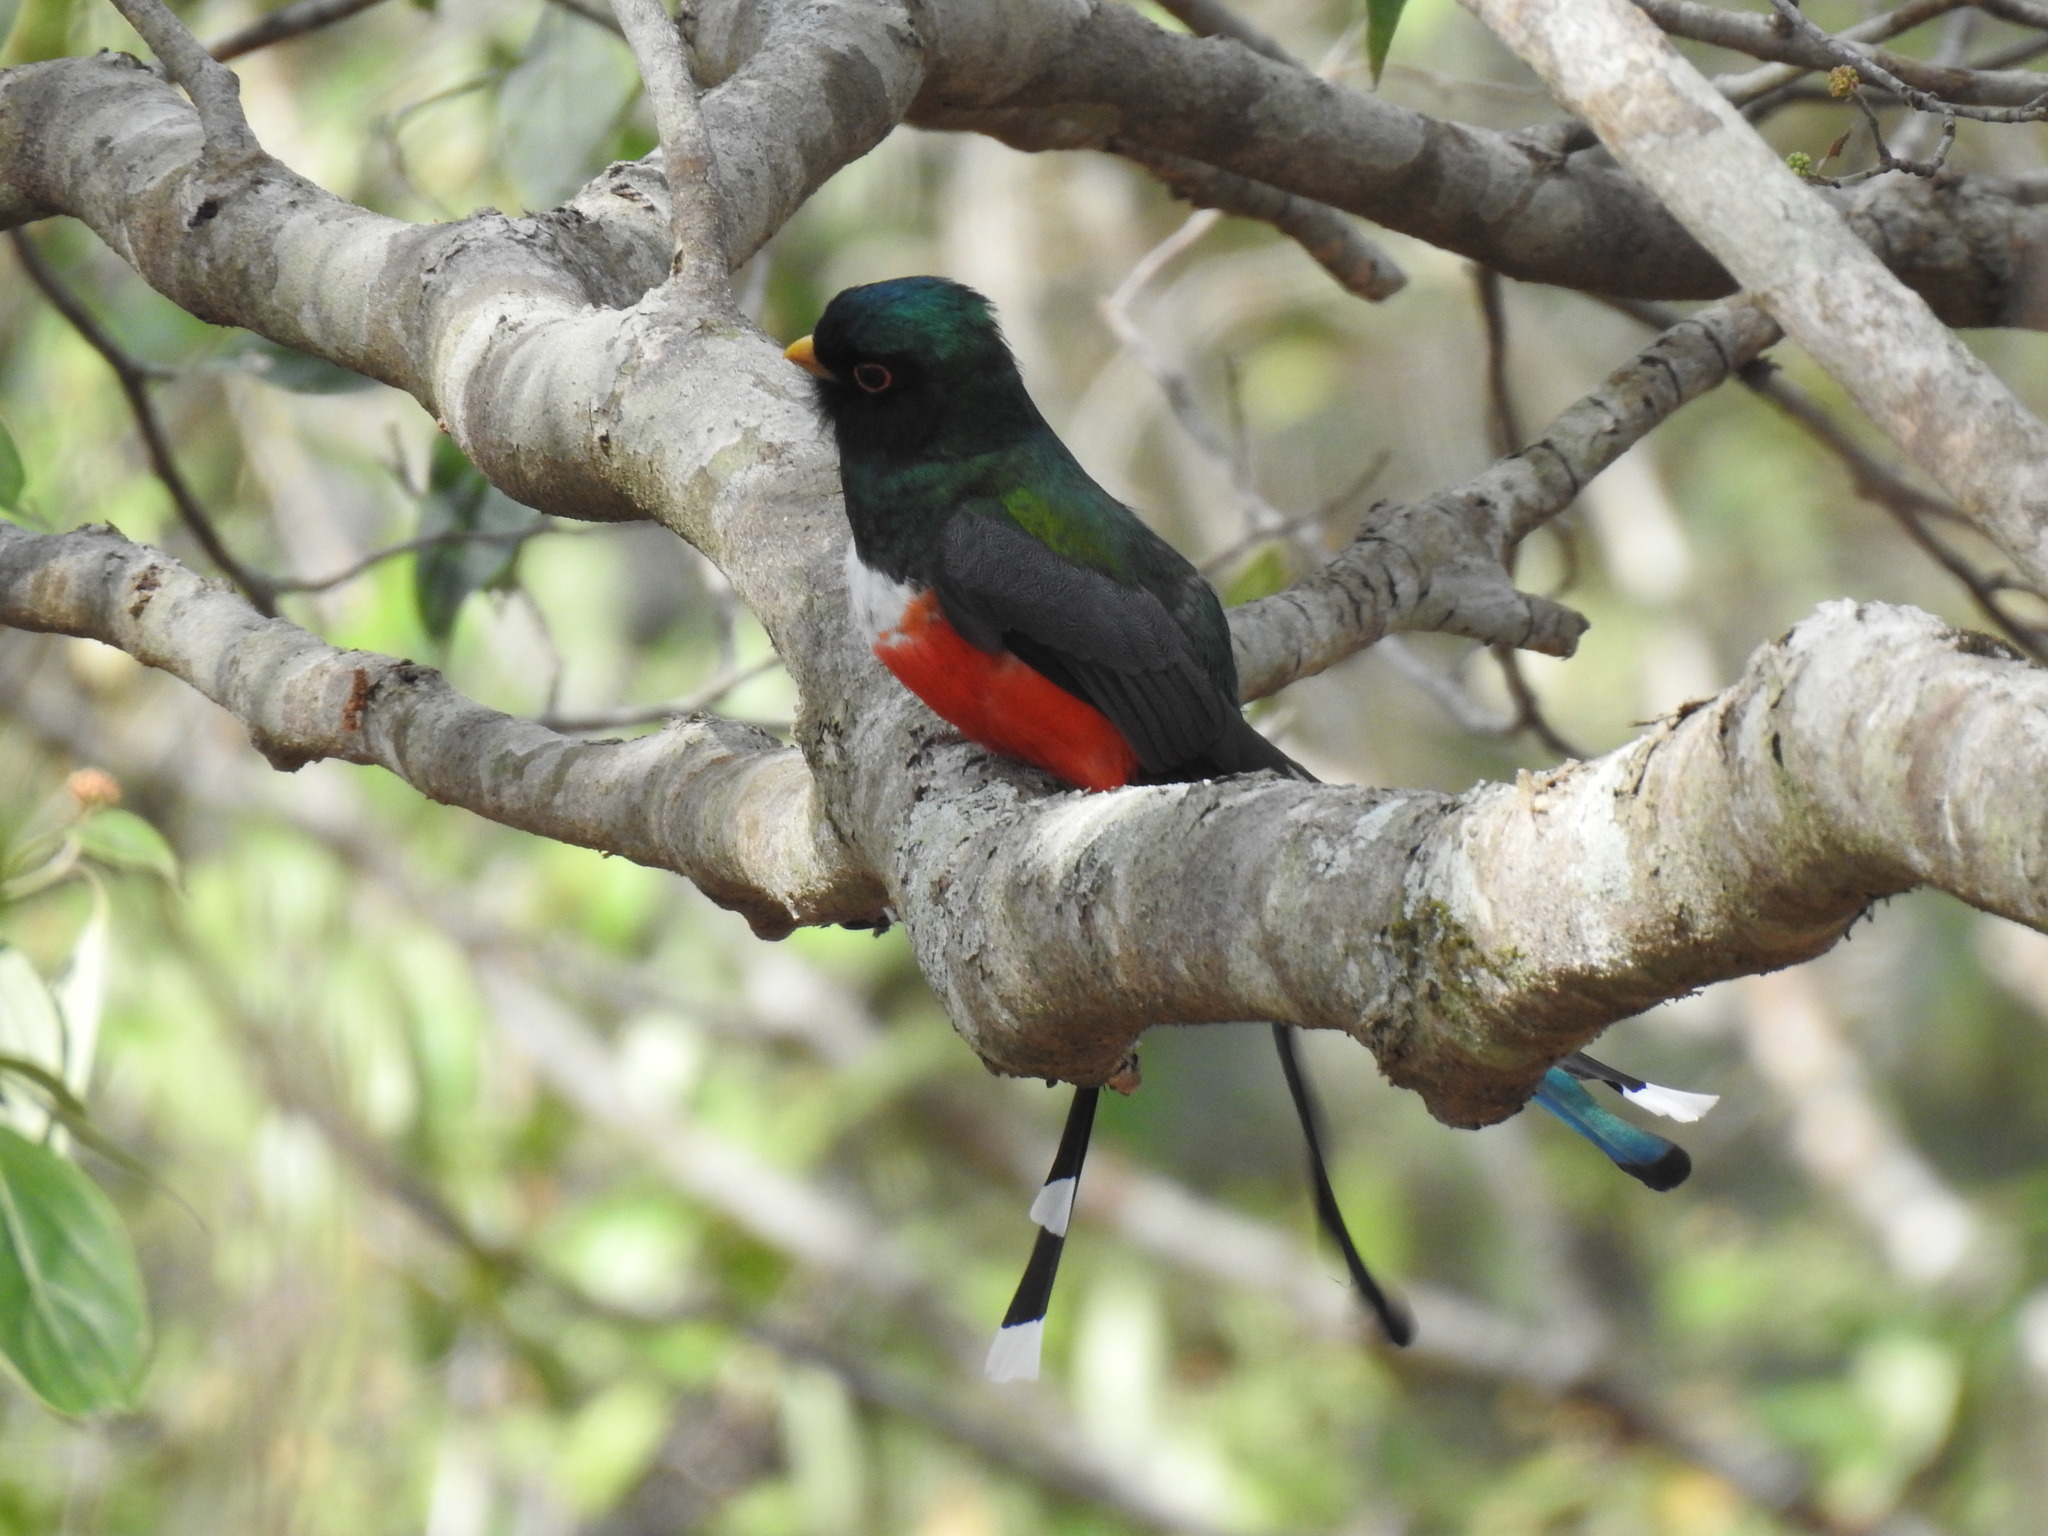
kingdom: Animalia
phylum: Chordata
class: Aves
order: Trogoniformes
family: Trogonidae
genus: Trogon
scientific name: Trogon mexicanus
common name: Mountain trogon
